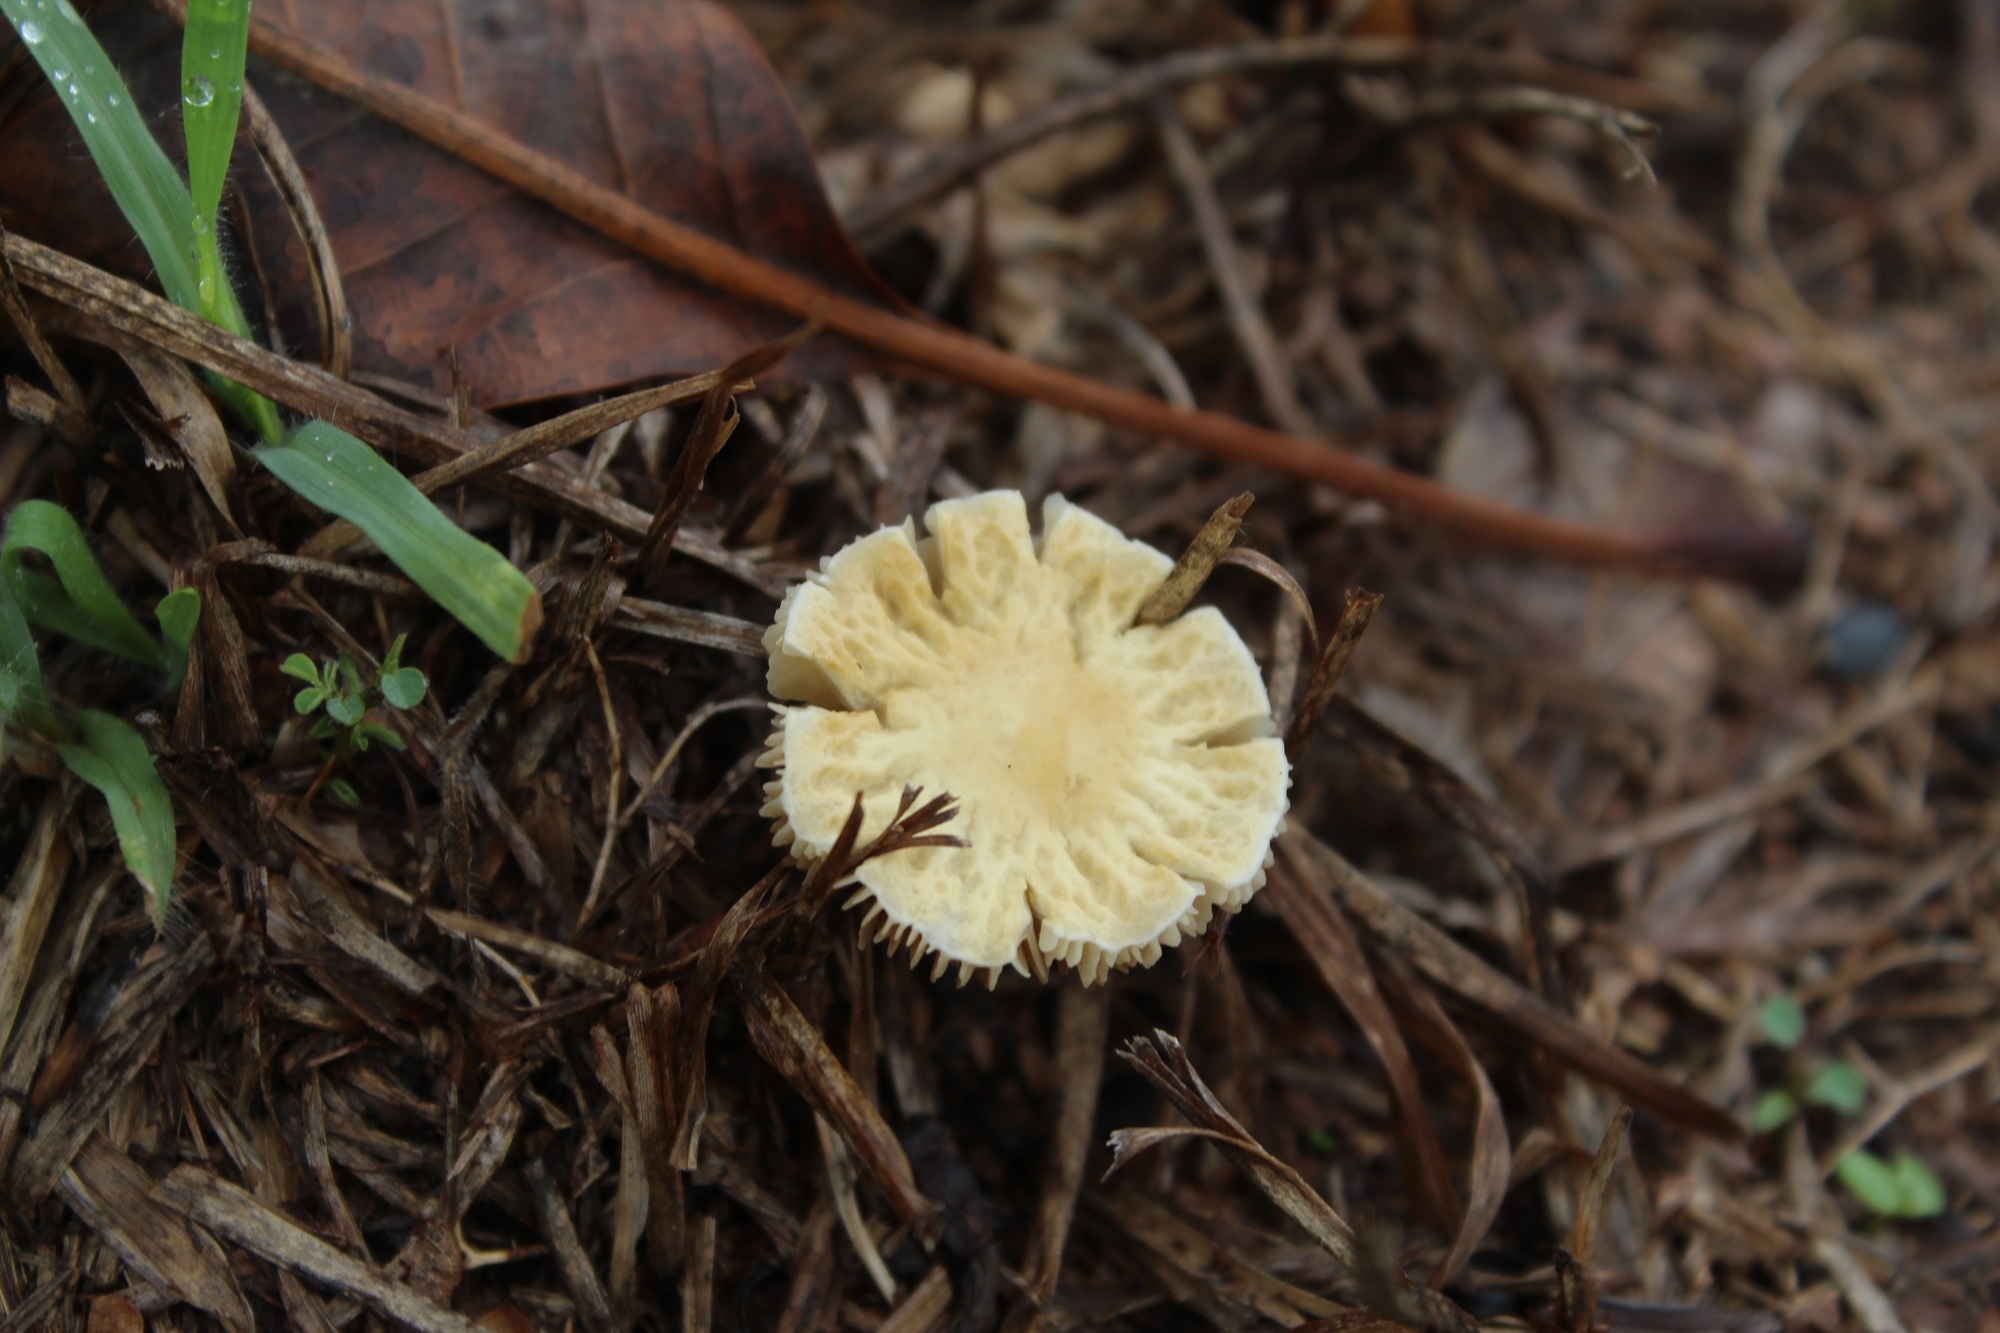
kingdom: Fungi
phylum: Basidiomycota
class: Agaricomycetes
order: Agaricales
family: Strophariaceae
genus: Agrocybe
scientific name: Agrocybe retigera
